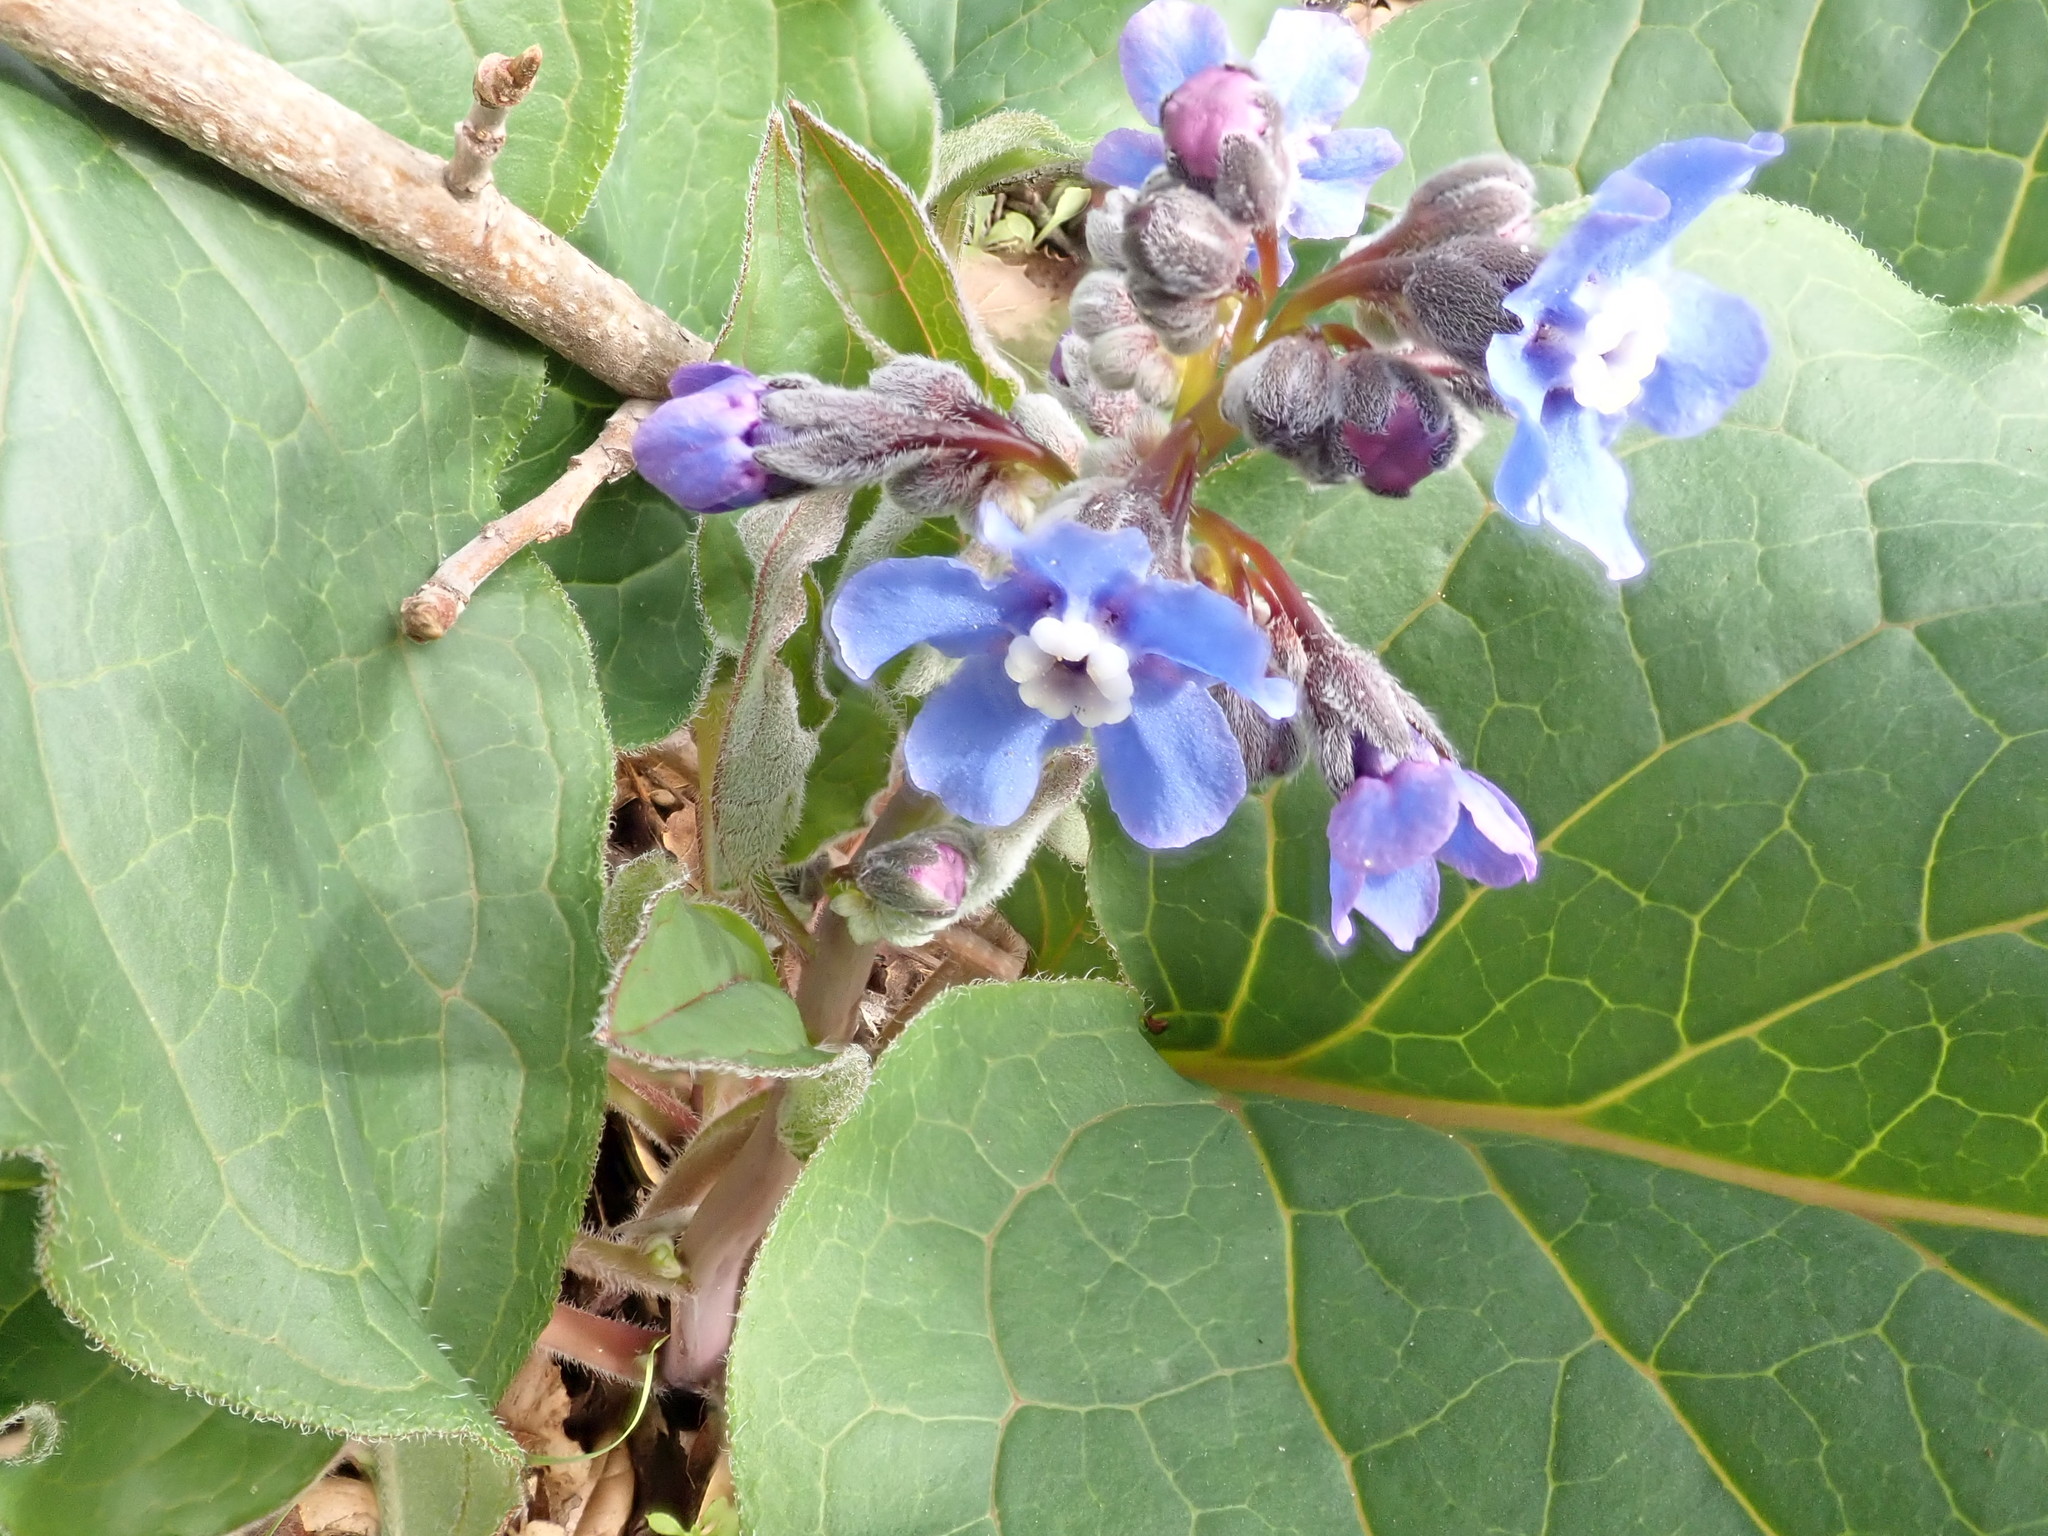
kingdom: Plantae
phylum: Tracheophyta
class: Magnoliopsida
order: Boraginales
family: Boraginaceae
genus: Adelinia
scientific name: Adelinia grande
